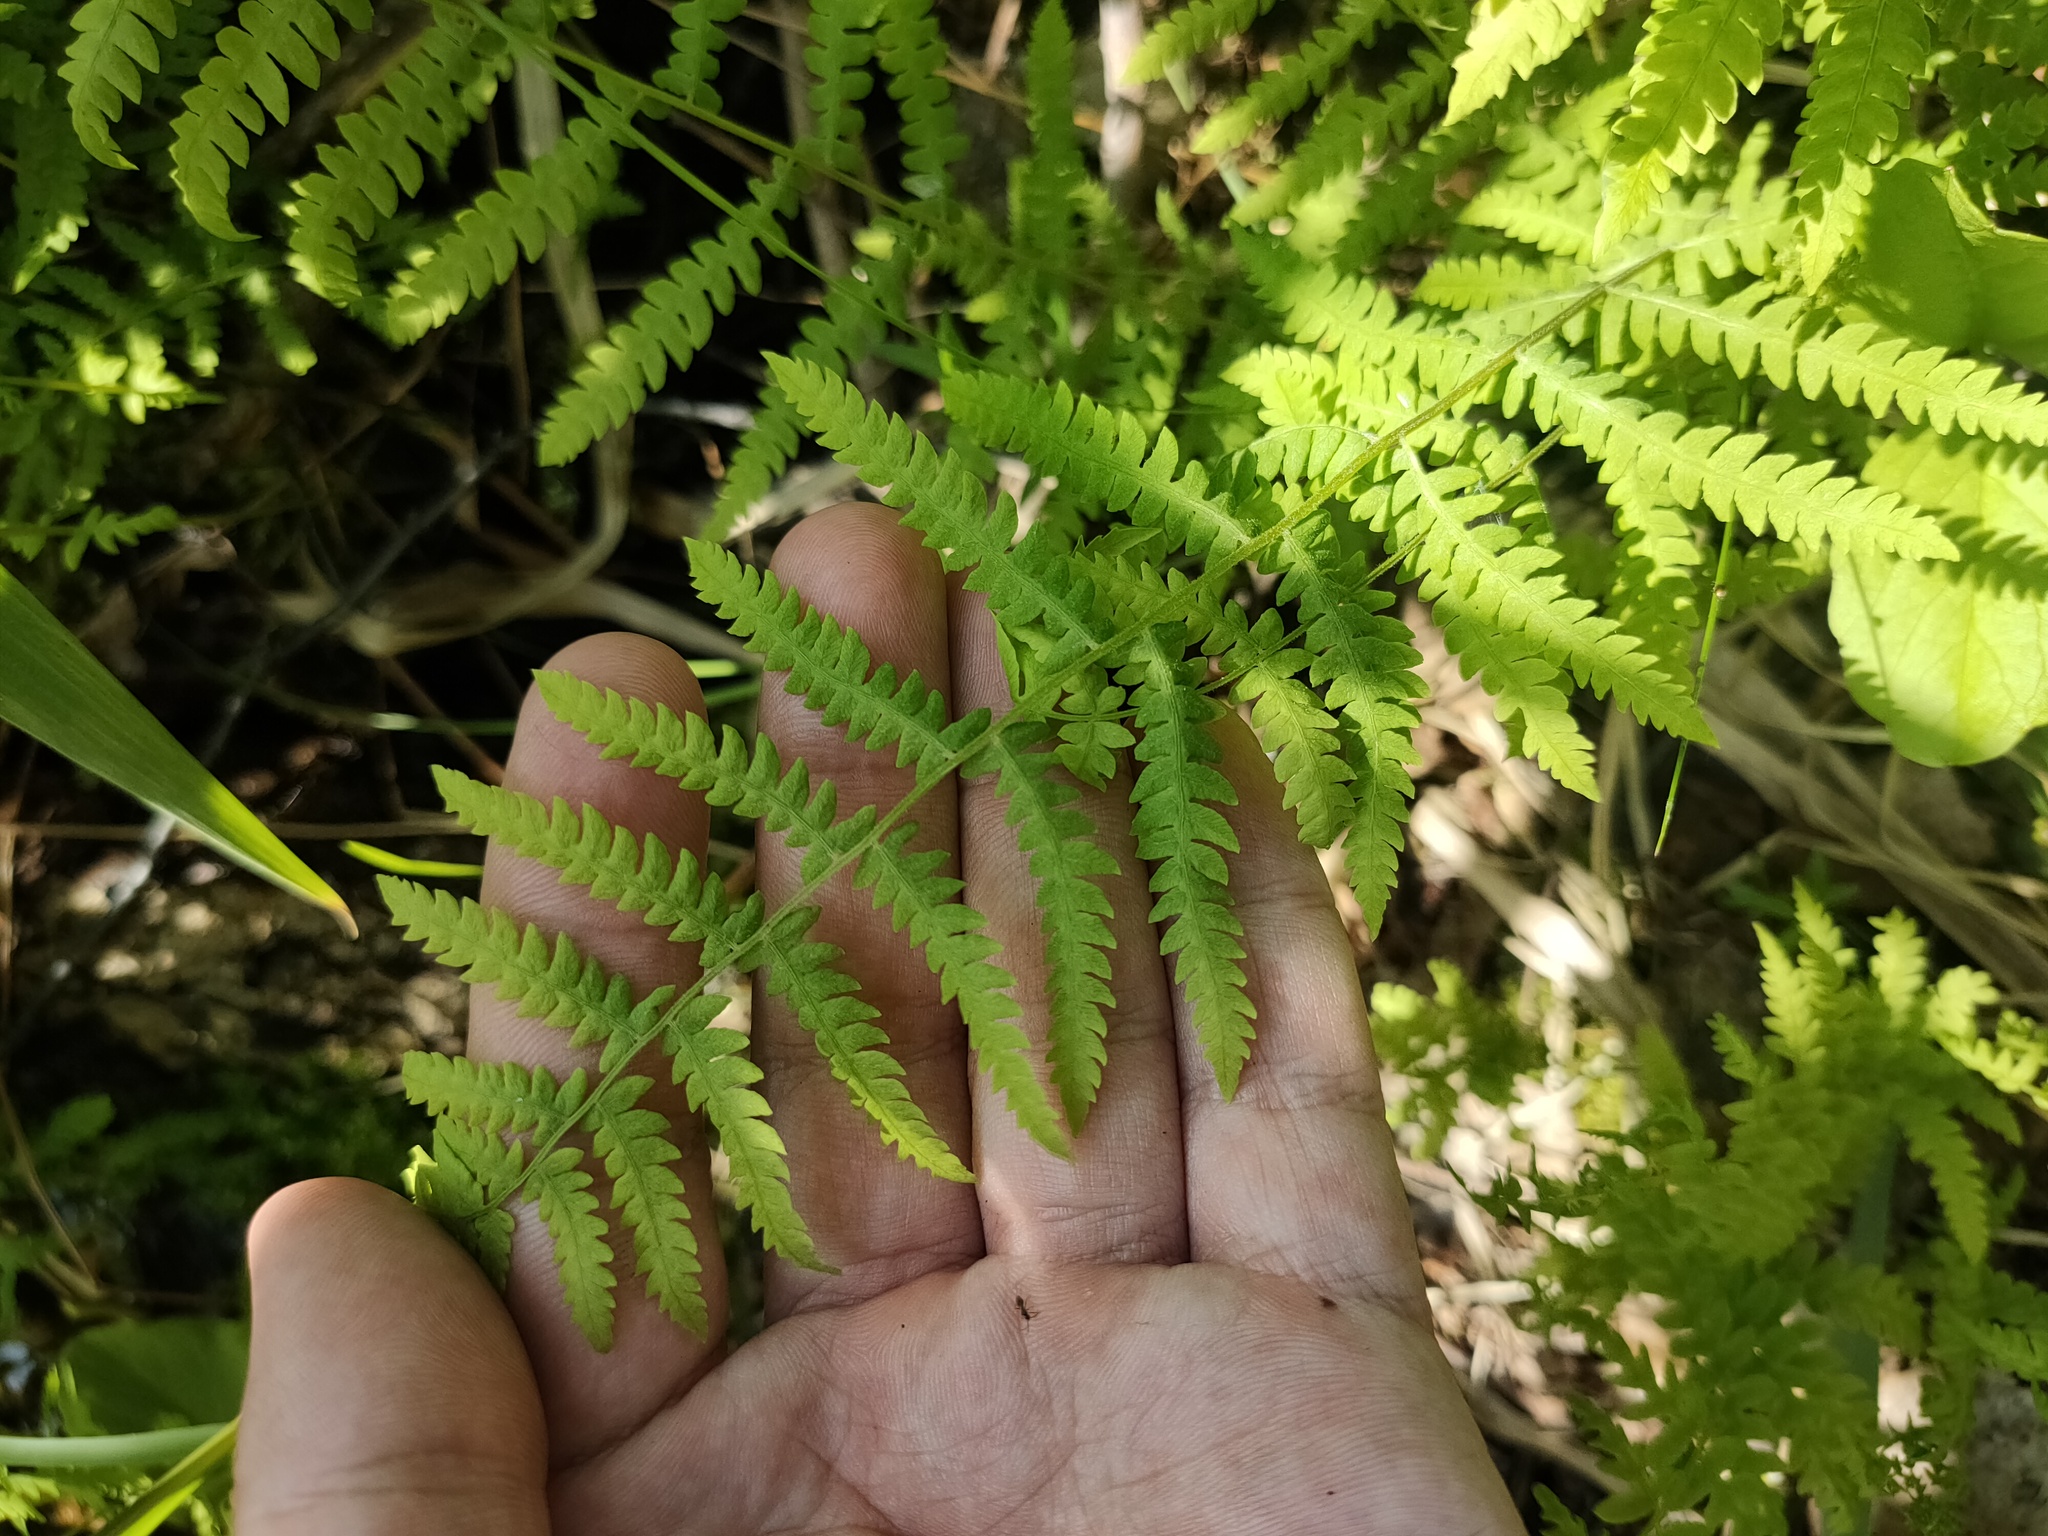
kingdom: Plantae
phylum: Tracheophyta
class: Polypodiopsida
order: Polypodiales
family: Thelypteridaceae
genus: Thelypteris
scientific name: Thelypteris palustris
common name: Marsh fern
